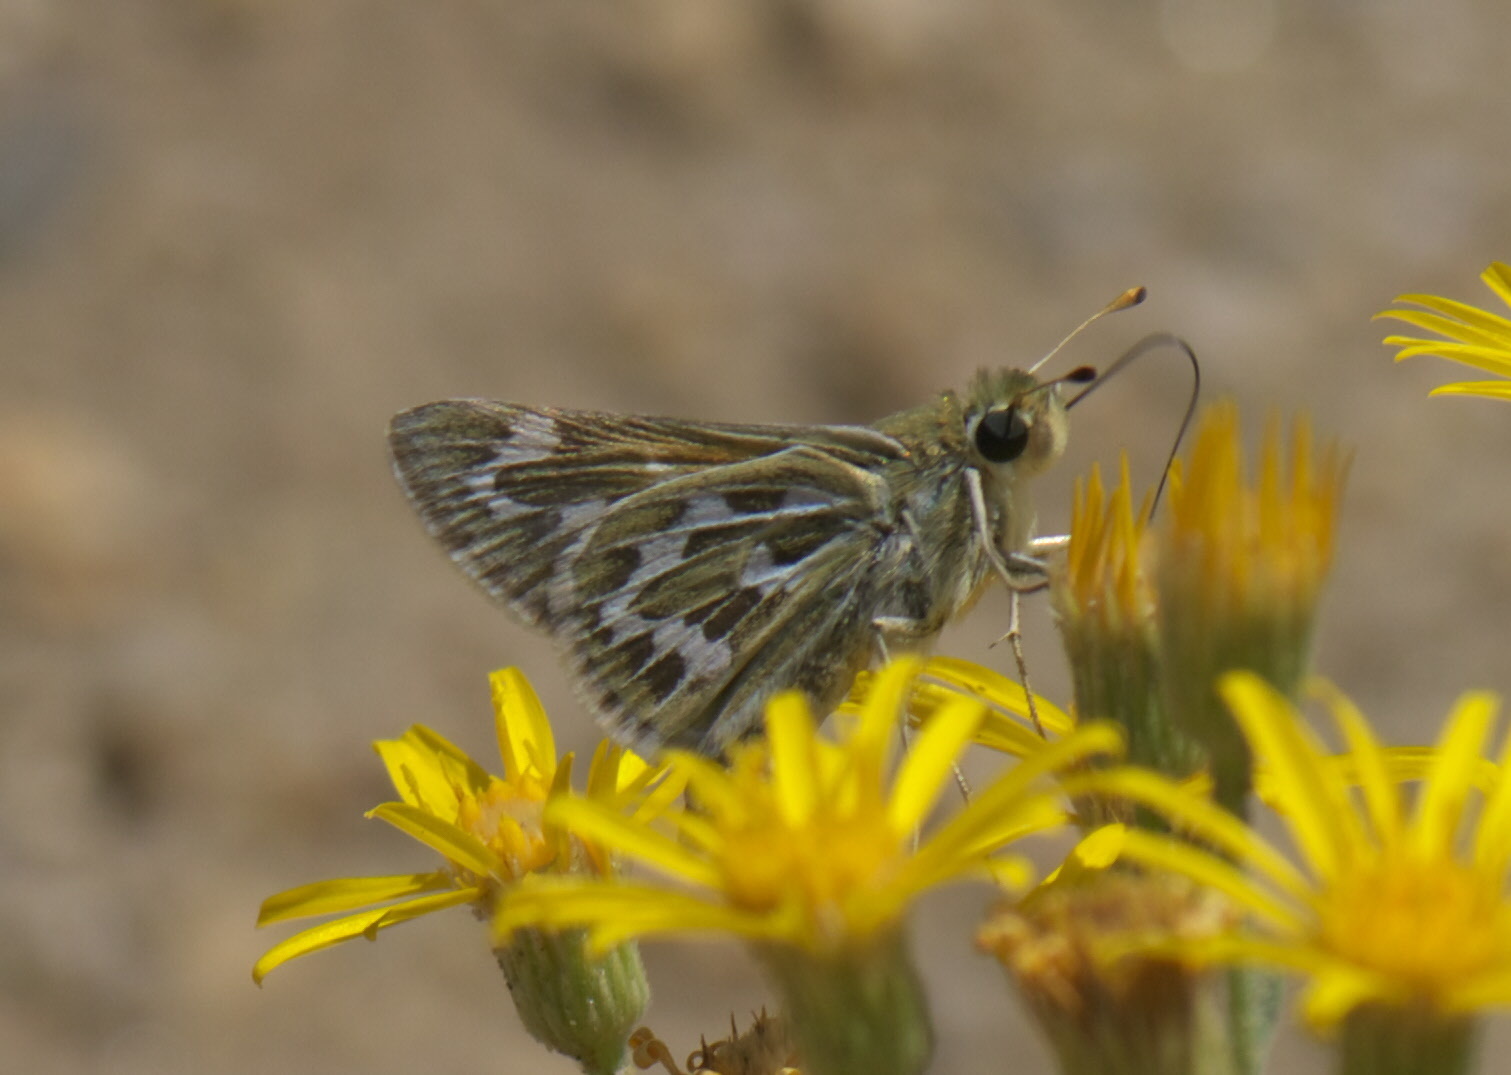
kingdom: Animalia
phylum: Arthropoda
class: Insecta
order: Lepidoptera
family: Hesperiidae
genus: Hesperia
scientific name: Hesperia uncas
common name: Uncas skipper
